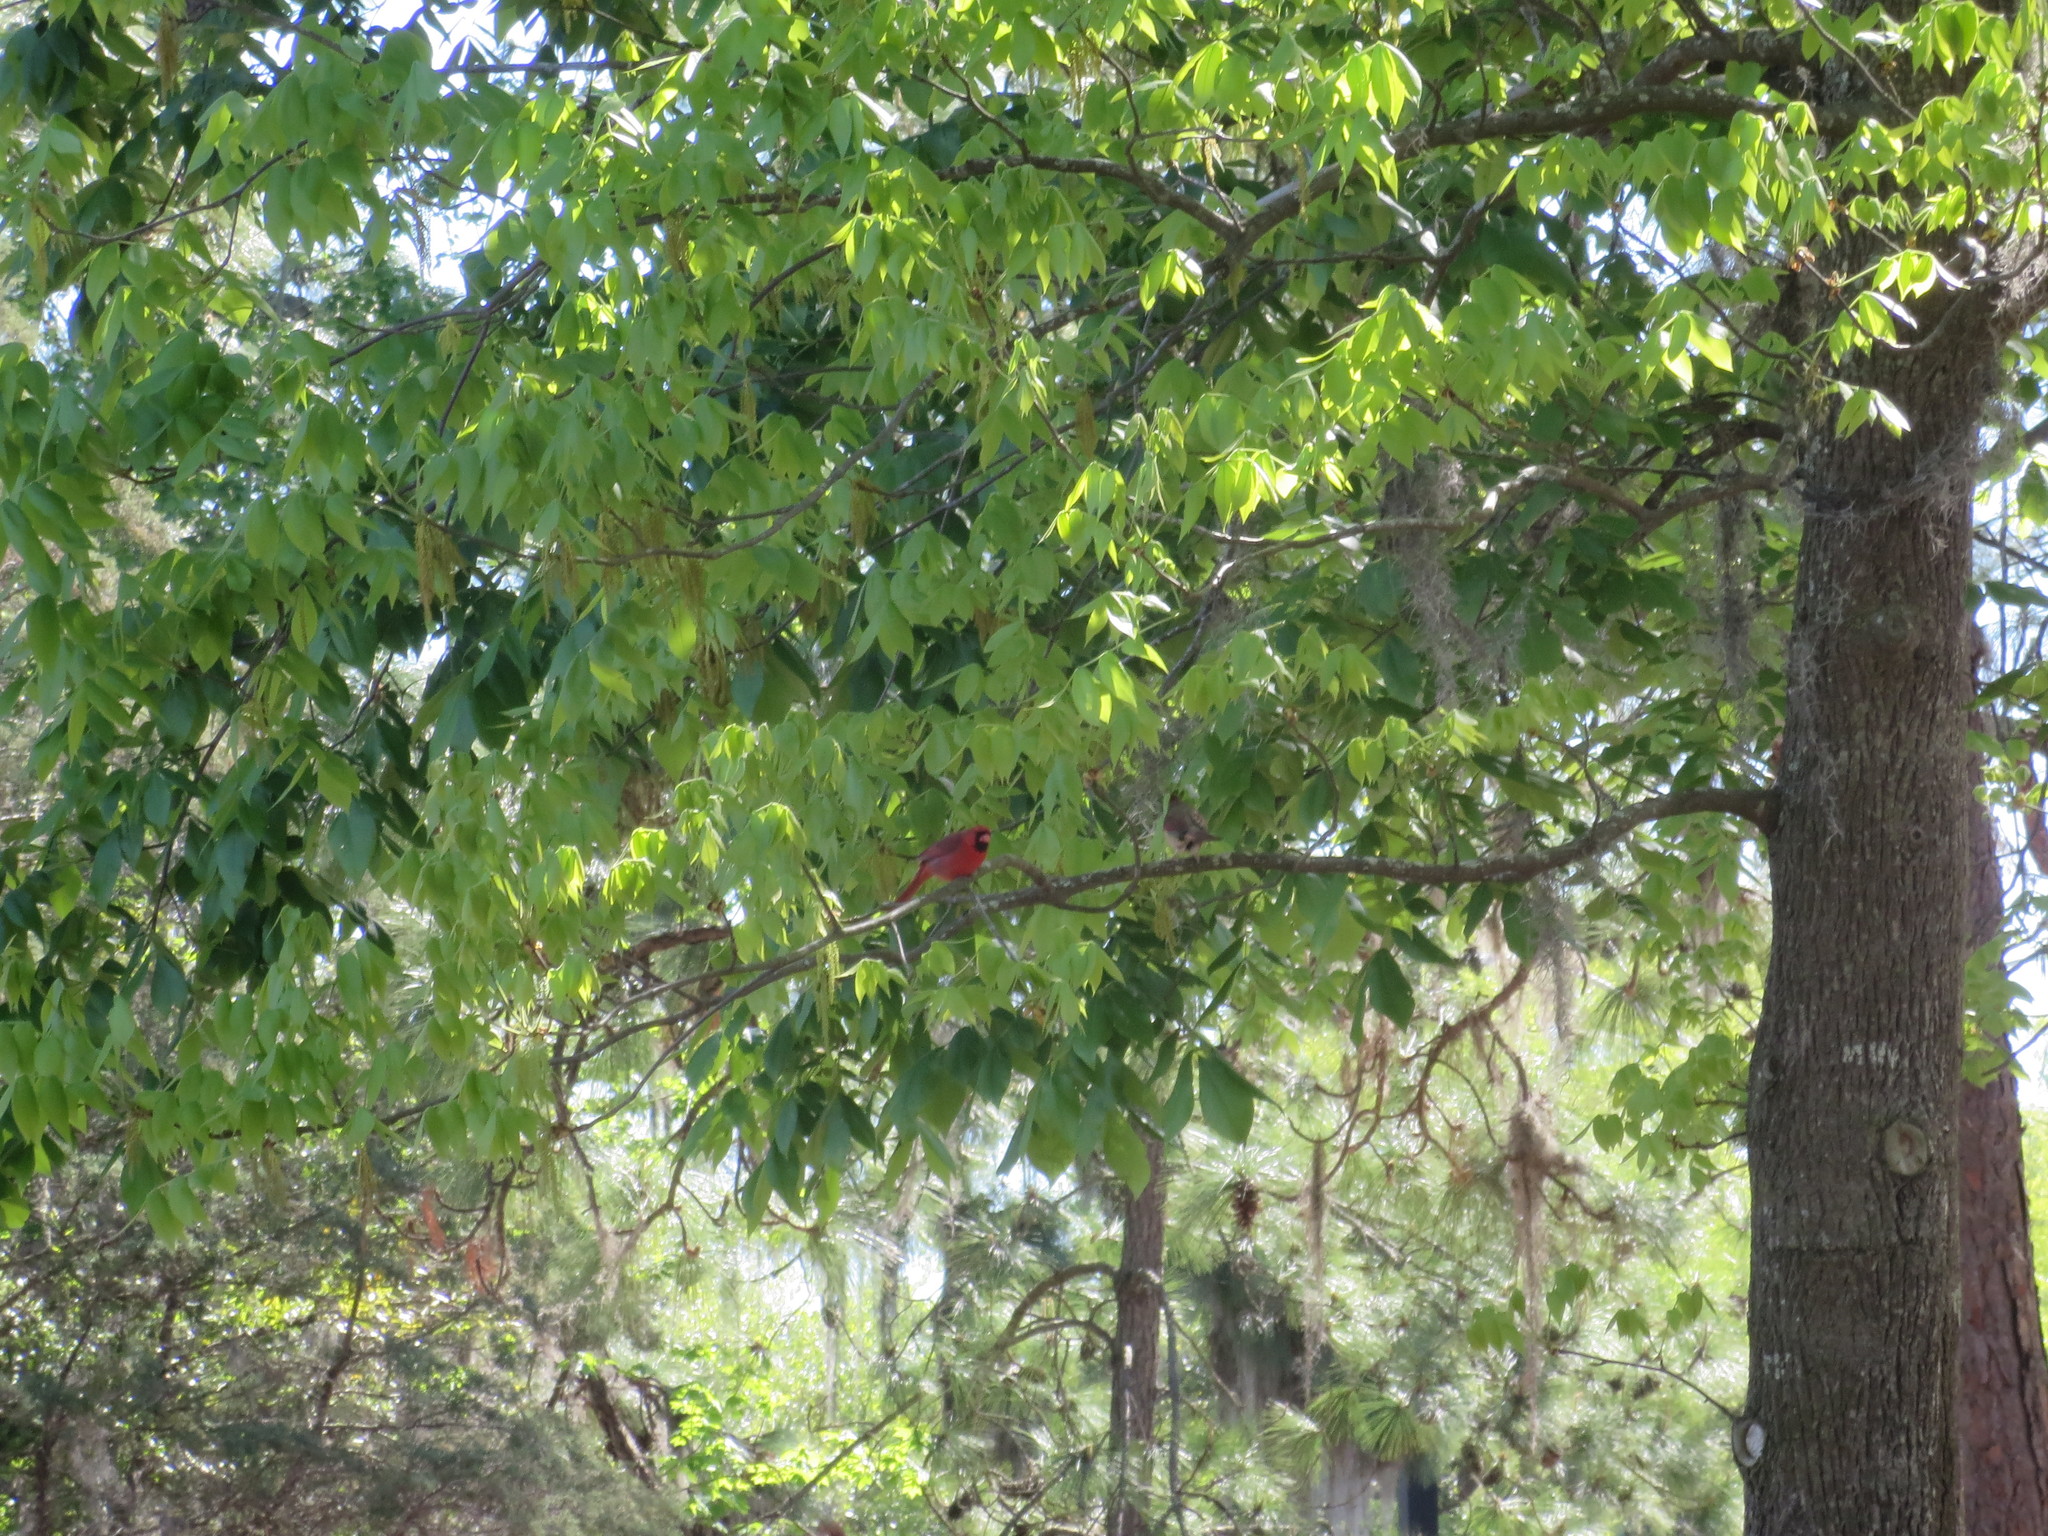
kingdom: Animalia
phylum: Chordata
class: Aves
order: Passeriformes
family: Cardinalidae
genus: Cardinalis
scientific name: Cardinalis cardinalis
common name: Northern cardinal
